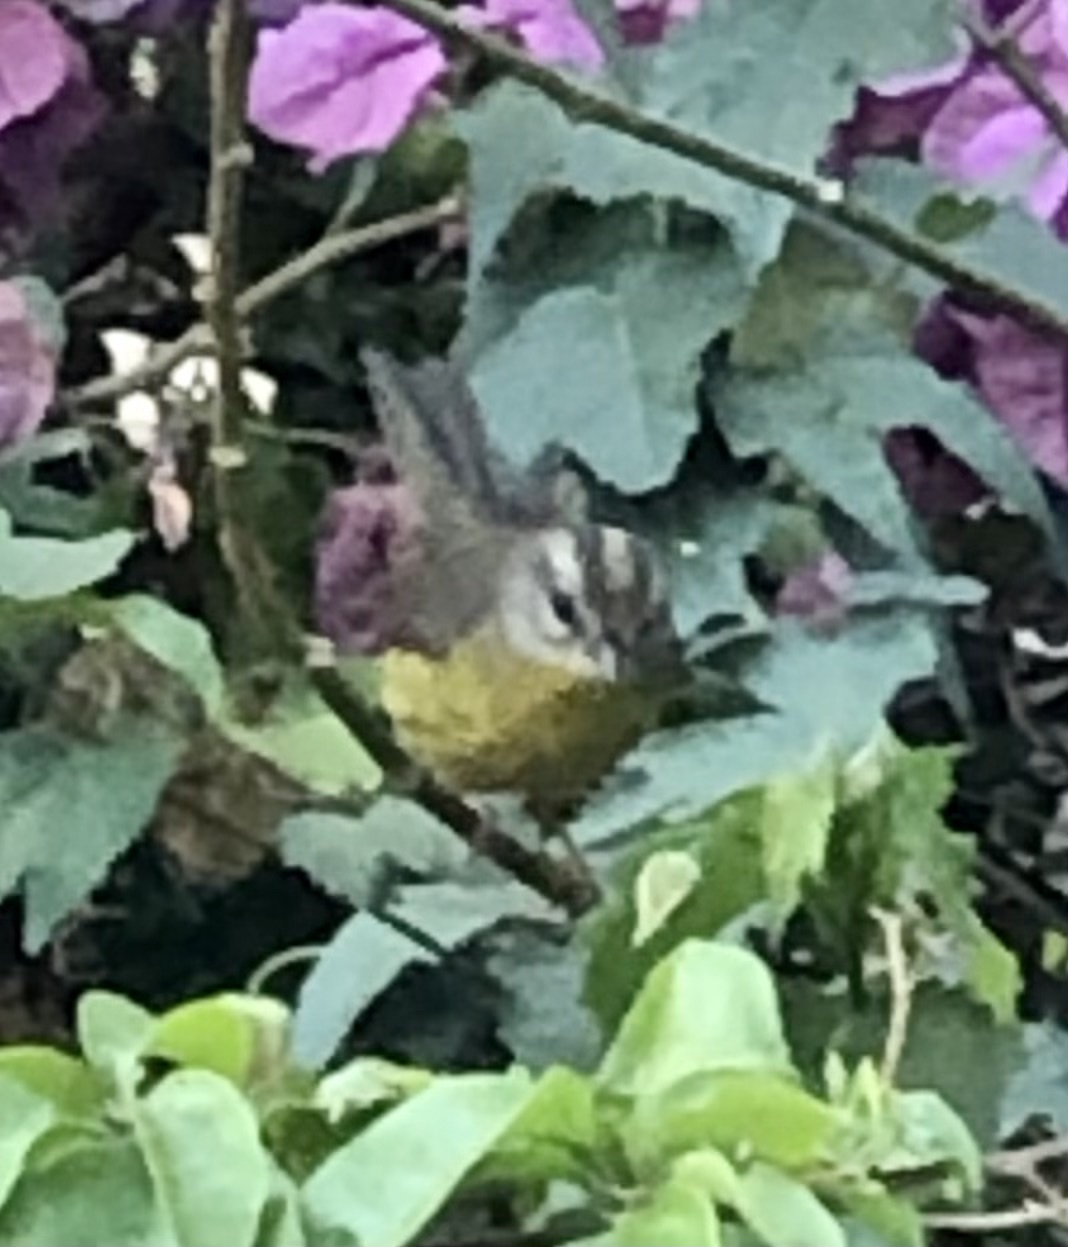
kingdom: Animalia
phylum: Chordata
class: Aves
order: Passeriformes
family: Parulidae
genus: Basileuterus
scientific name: Basileuterus culicivorus
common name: Golden-crowned warbler
